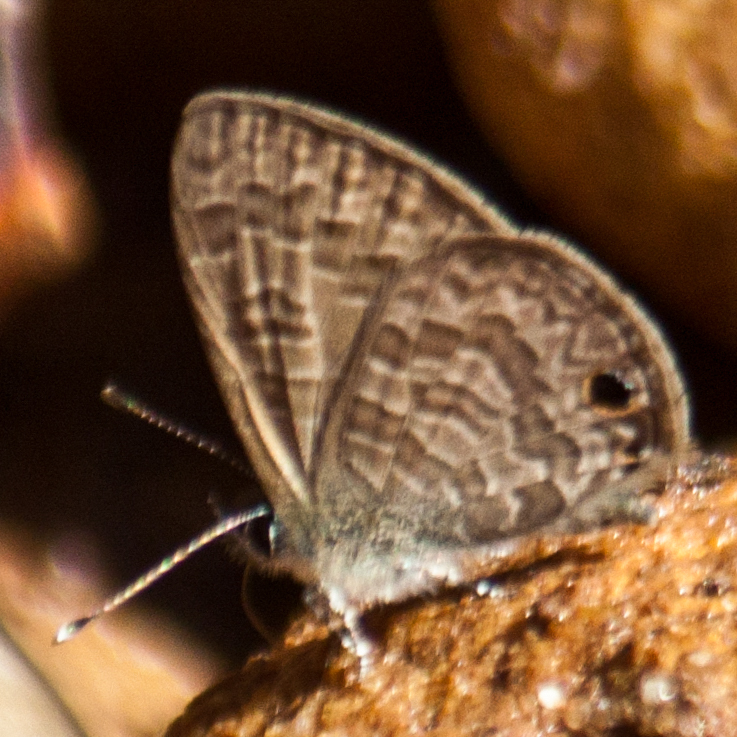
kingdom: Animalia
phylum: Arthropoda
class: Insecta
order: Lepidoptera
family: Lycaenidae
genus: Prosotas
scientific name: Prosotas dubiosa
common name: Tailless lineblue
